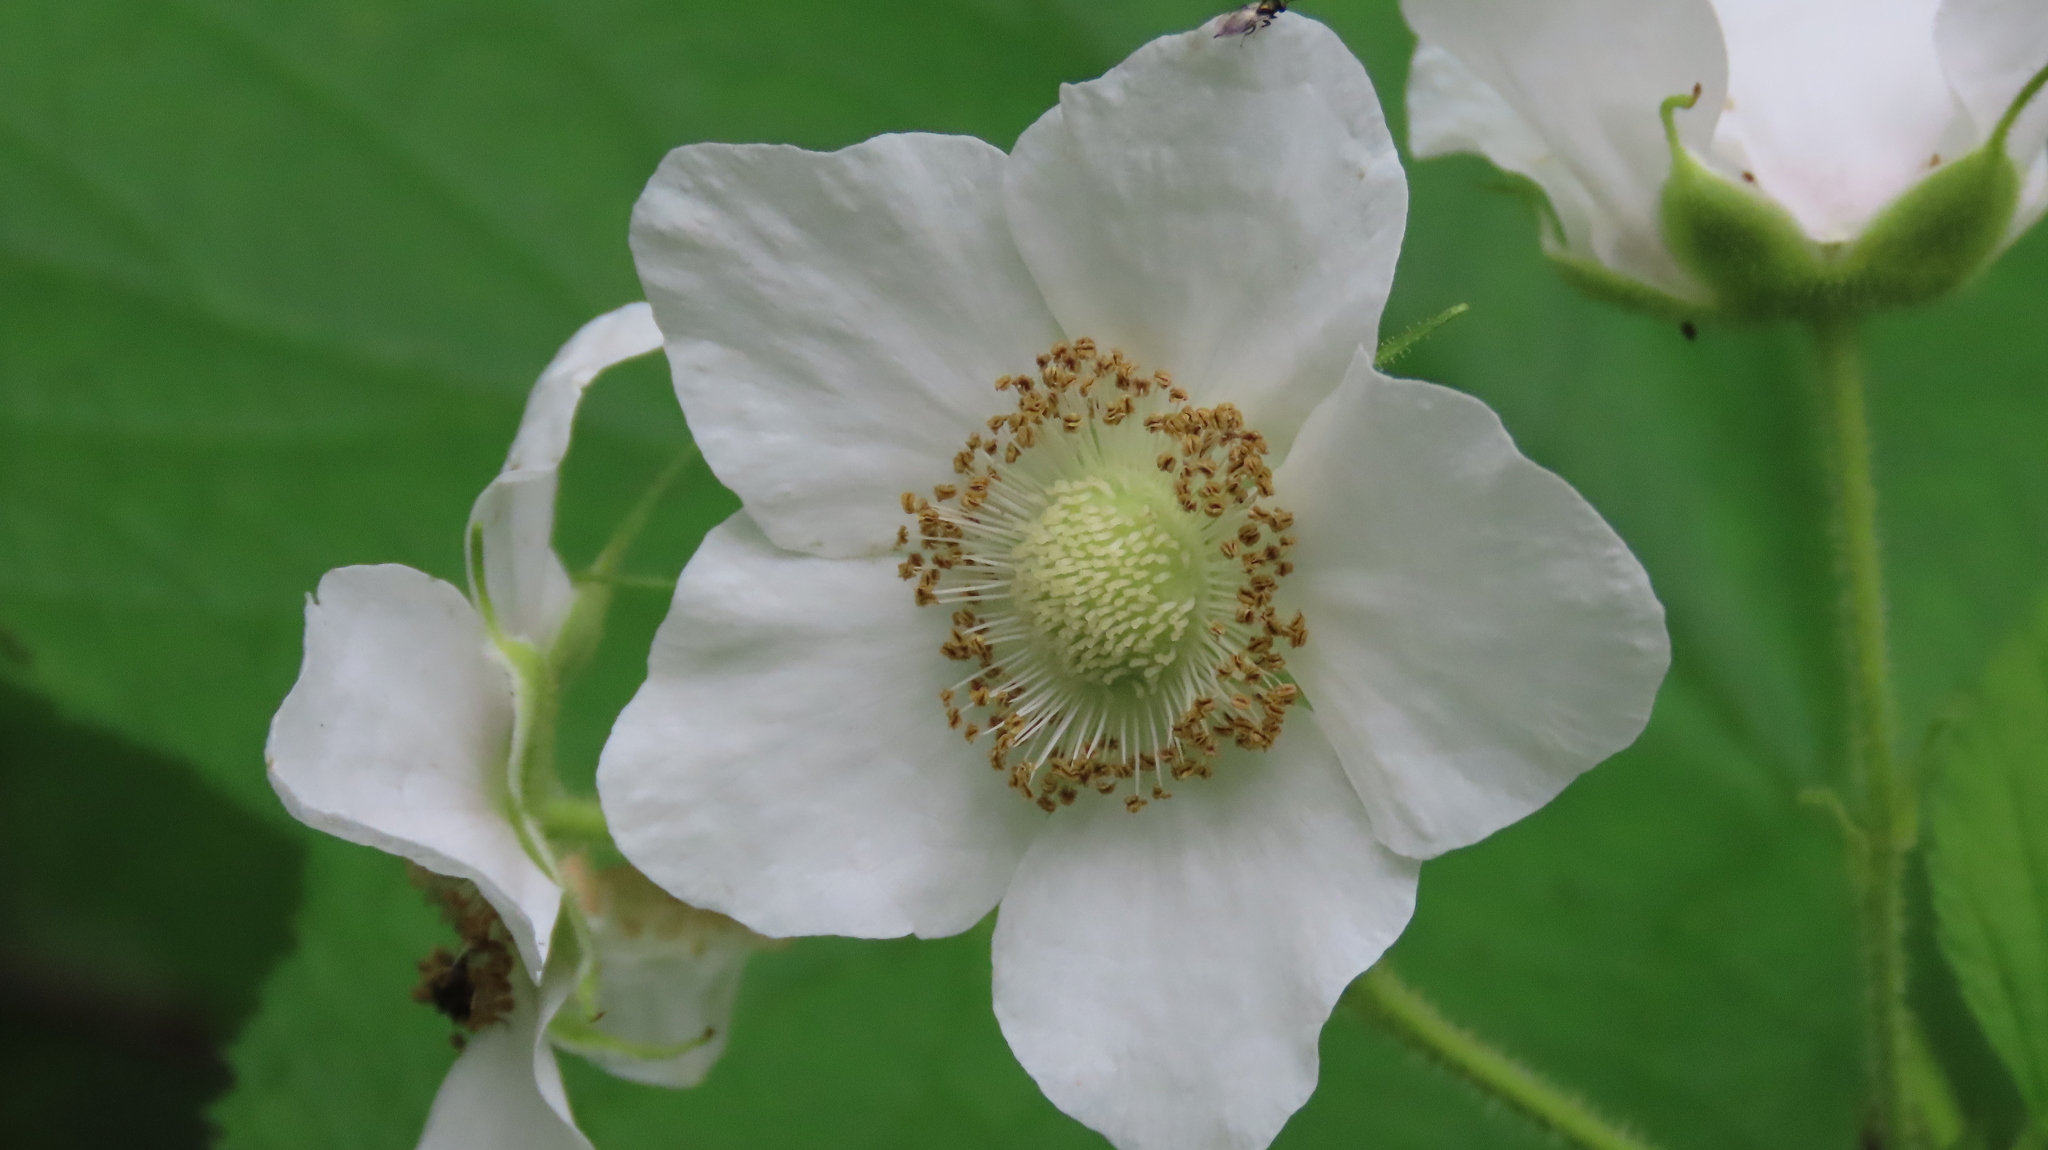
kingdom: Plantae
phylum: Tracheophyta
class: Magnoliopsida
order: Rosales
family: Rosaceae
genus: Rubus
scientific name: Rubus parviflorus
